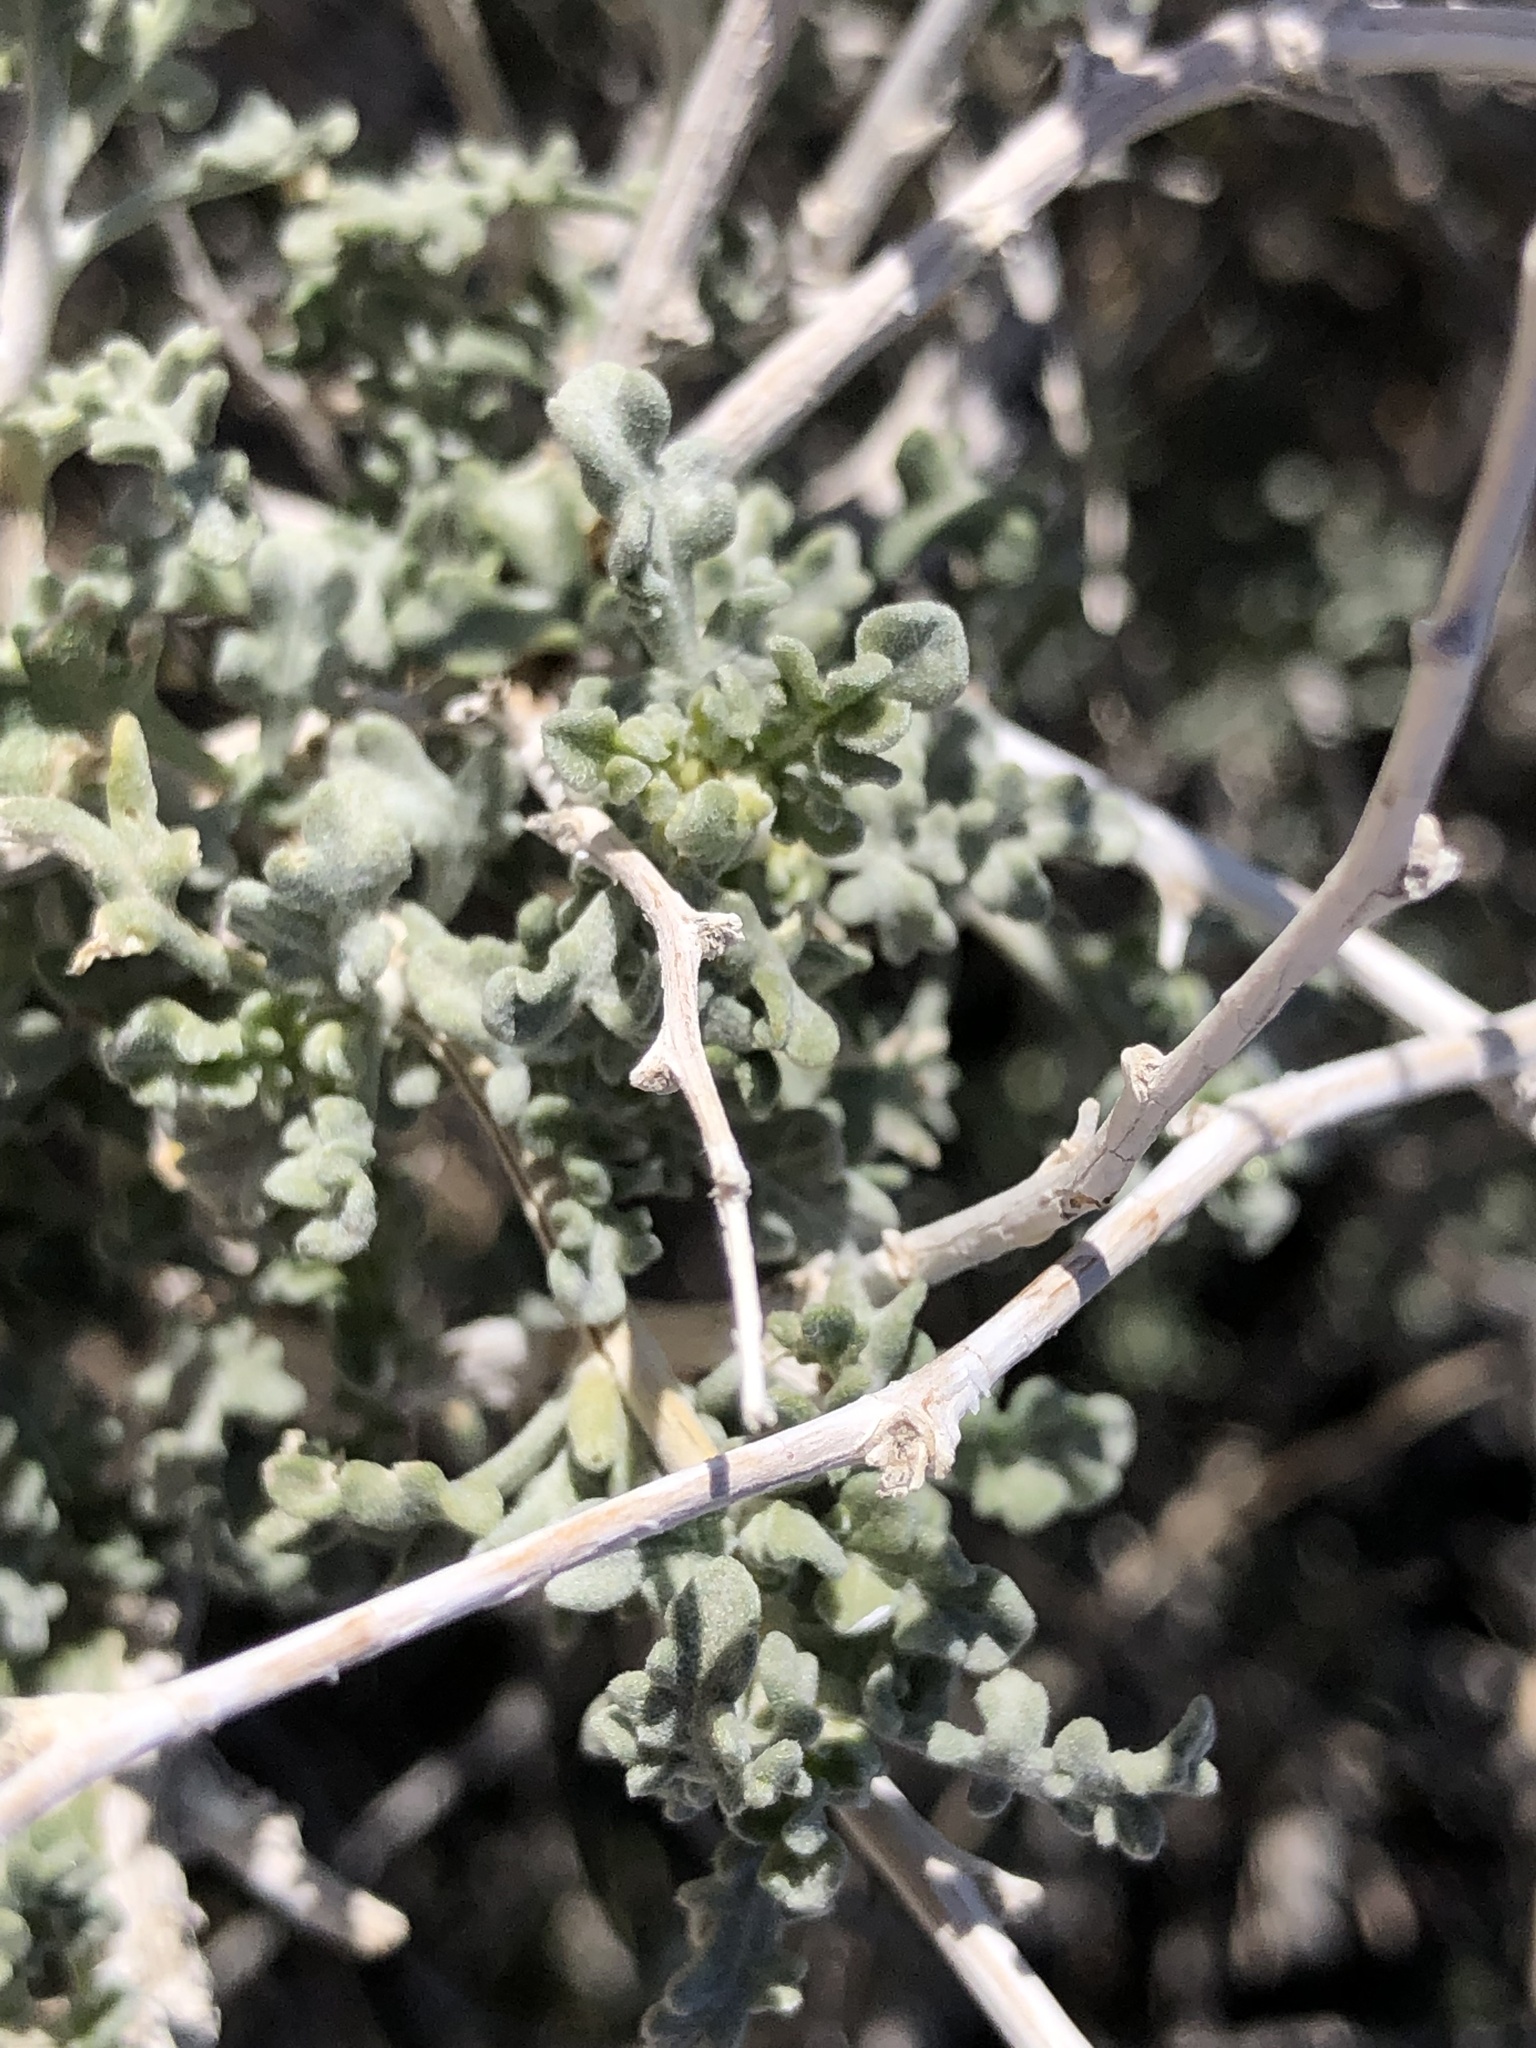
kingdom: Plantae
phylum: Tracheophyta
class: Magnoliopsida
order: Asterales
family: Asteraceae
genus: Ambrosia
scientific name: Ambrosia dumosa
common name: Bur-sage
